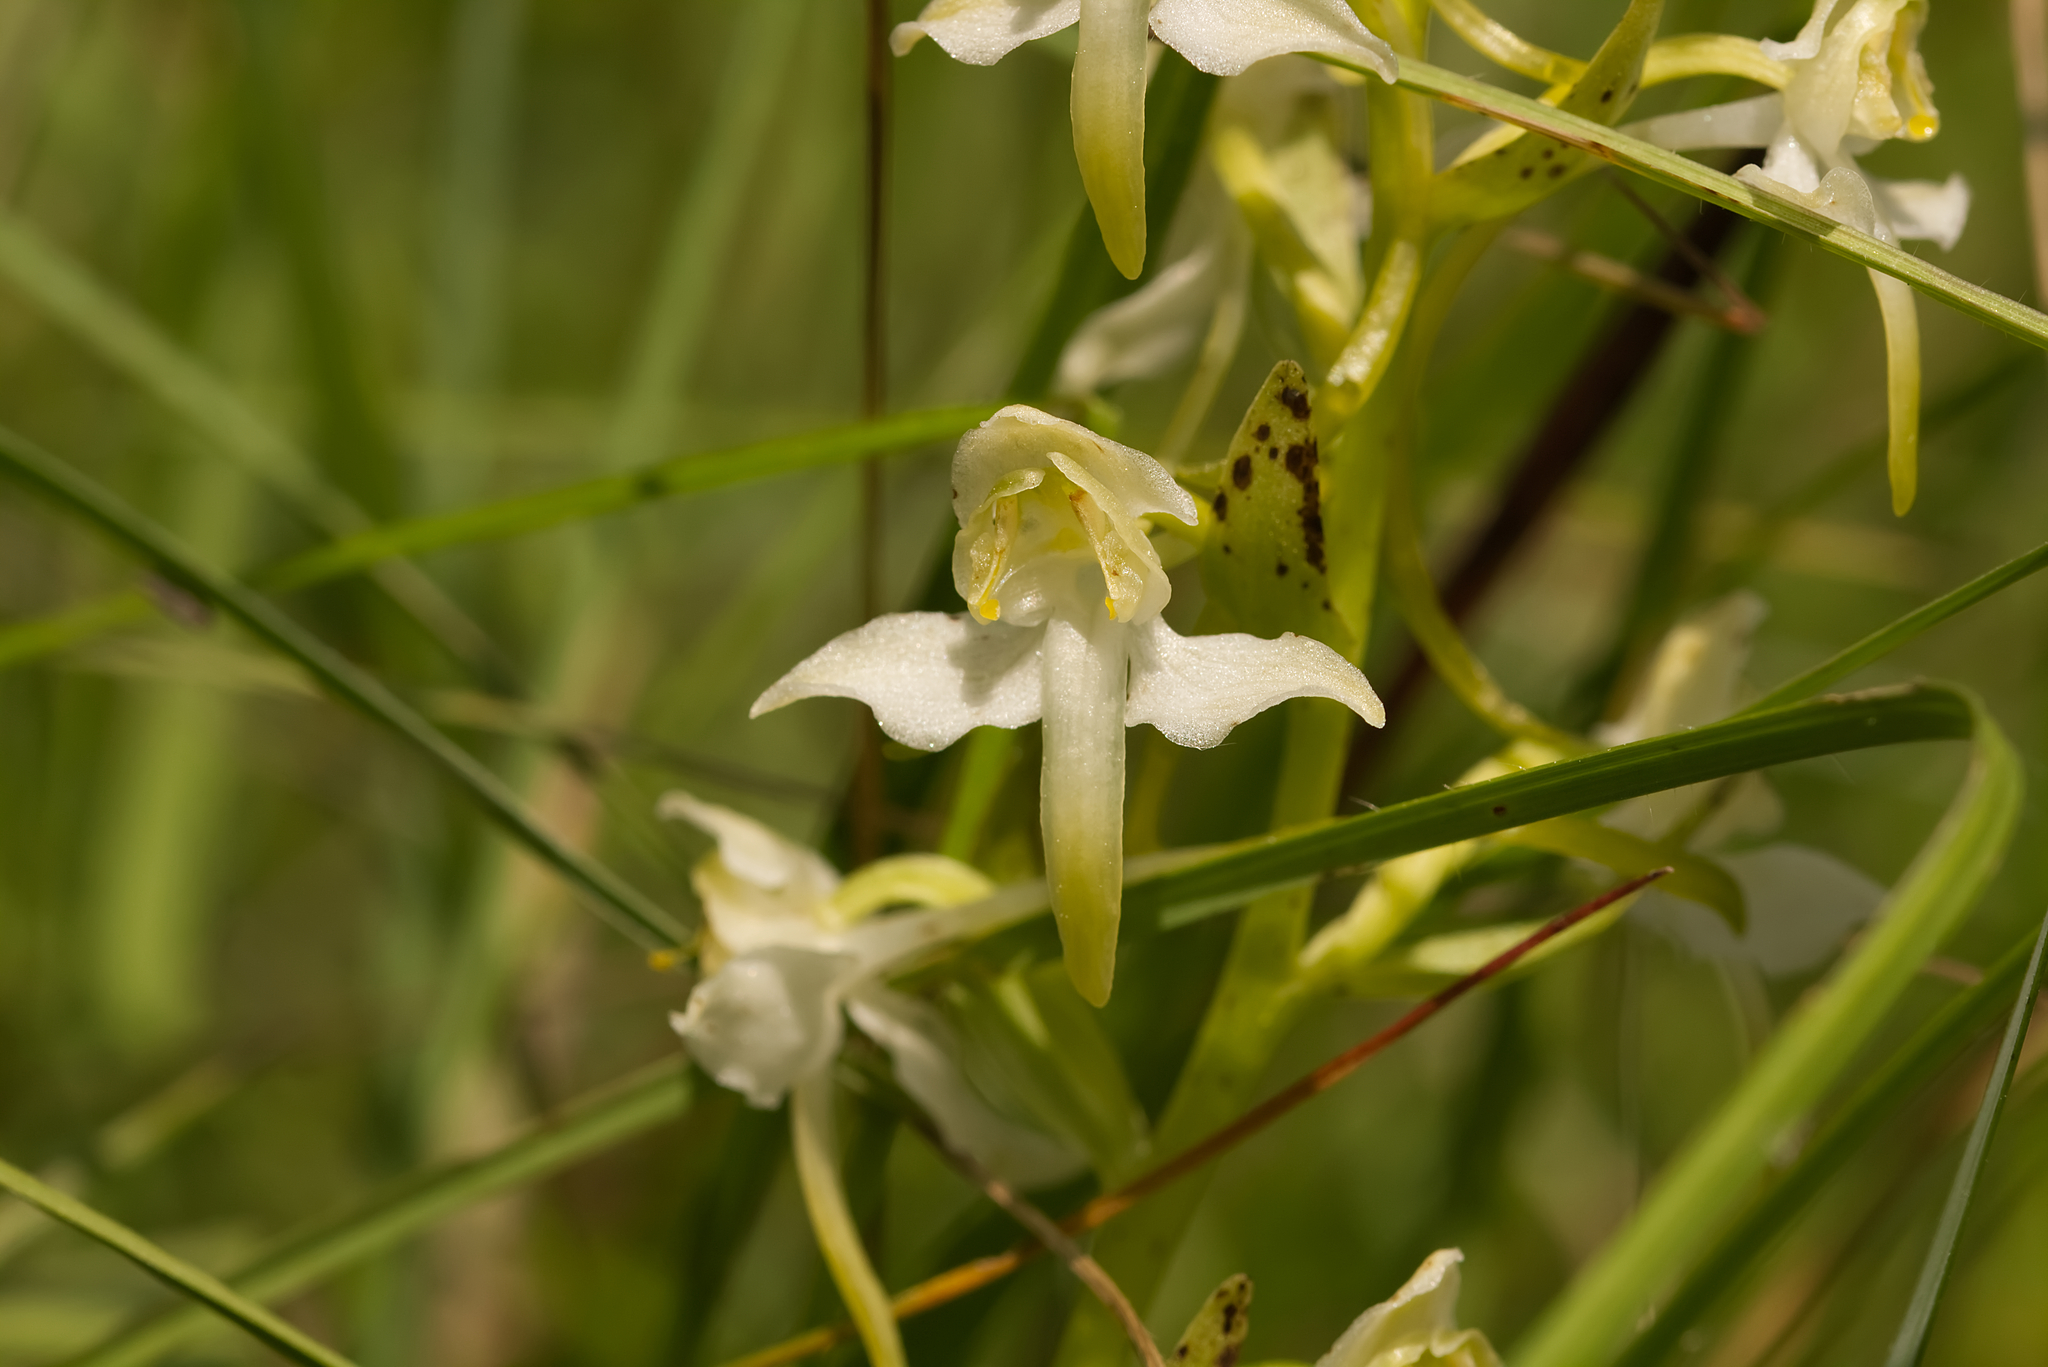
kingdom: Plantae
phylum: Tracheophyta
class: Liliopsida
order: Asparagales
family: Orchidaceae
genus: Platanthera
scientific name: Platanthera chlorantha
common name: Greater butterfly-orchid
